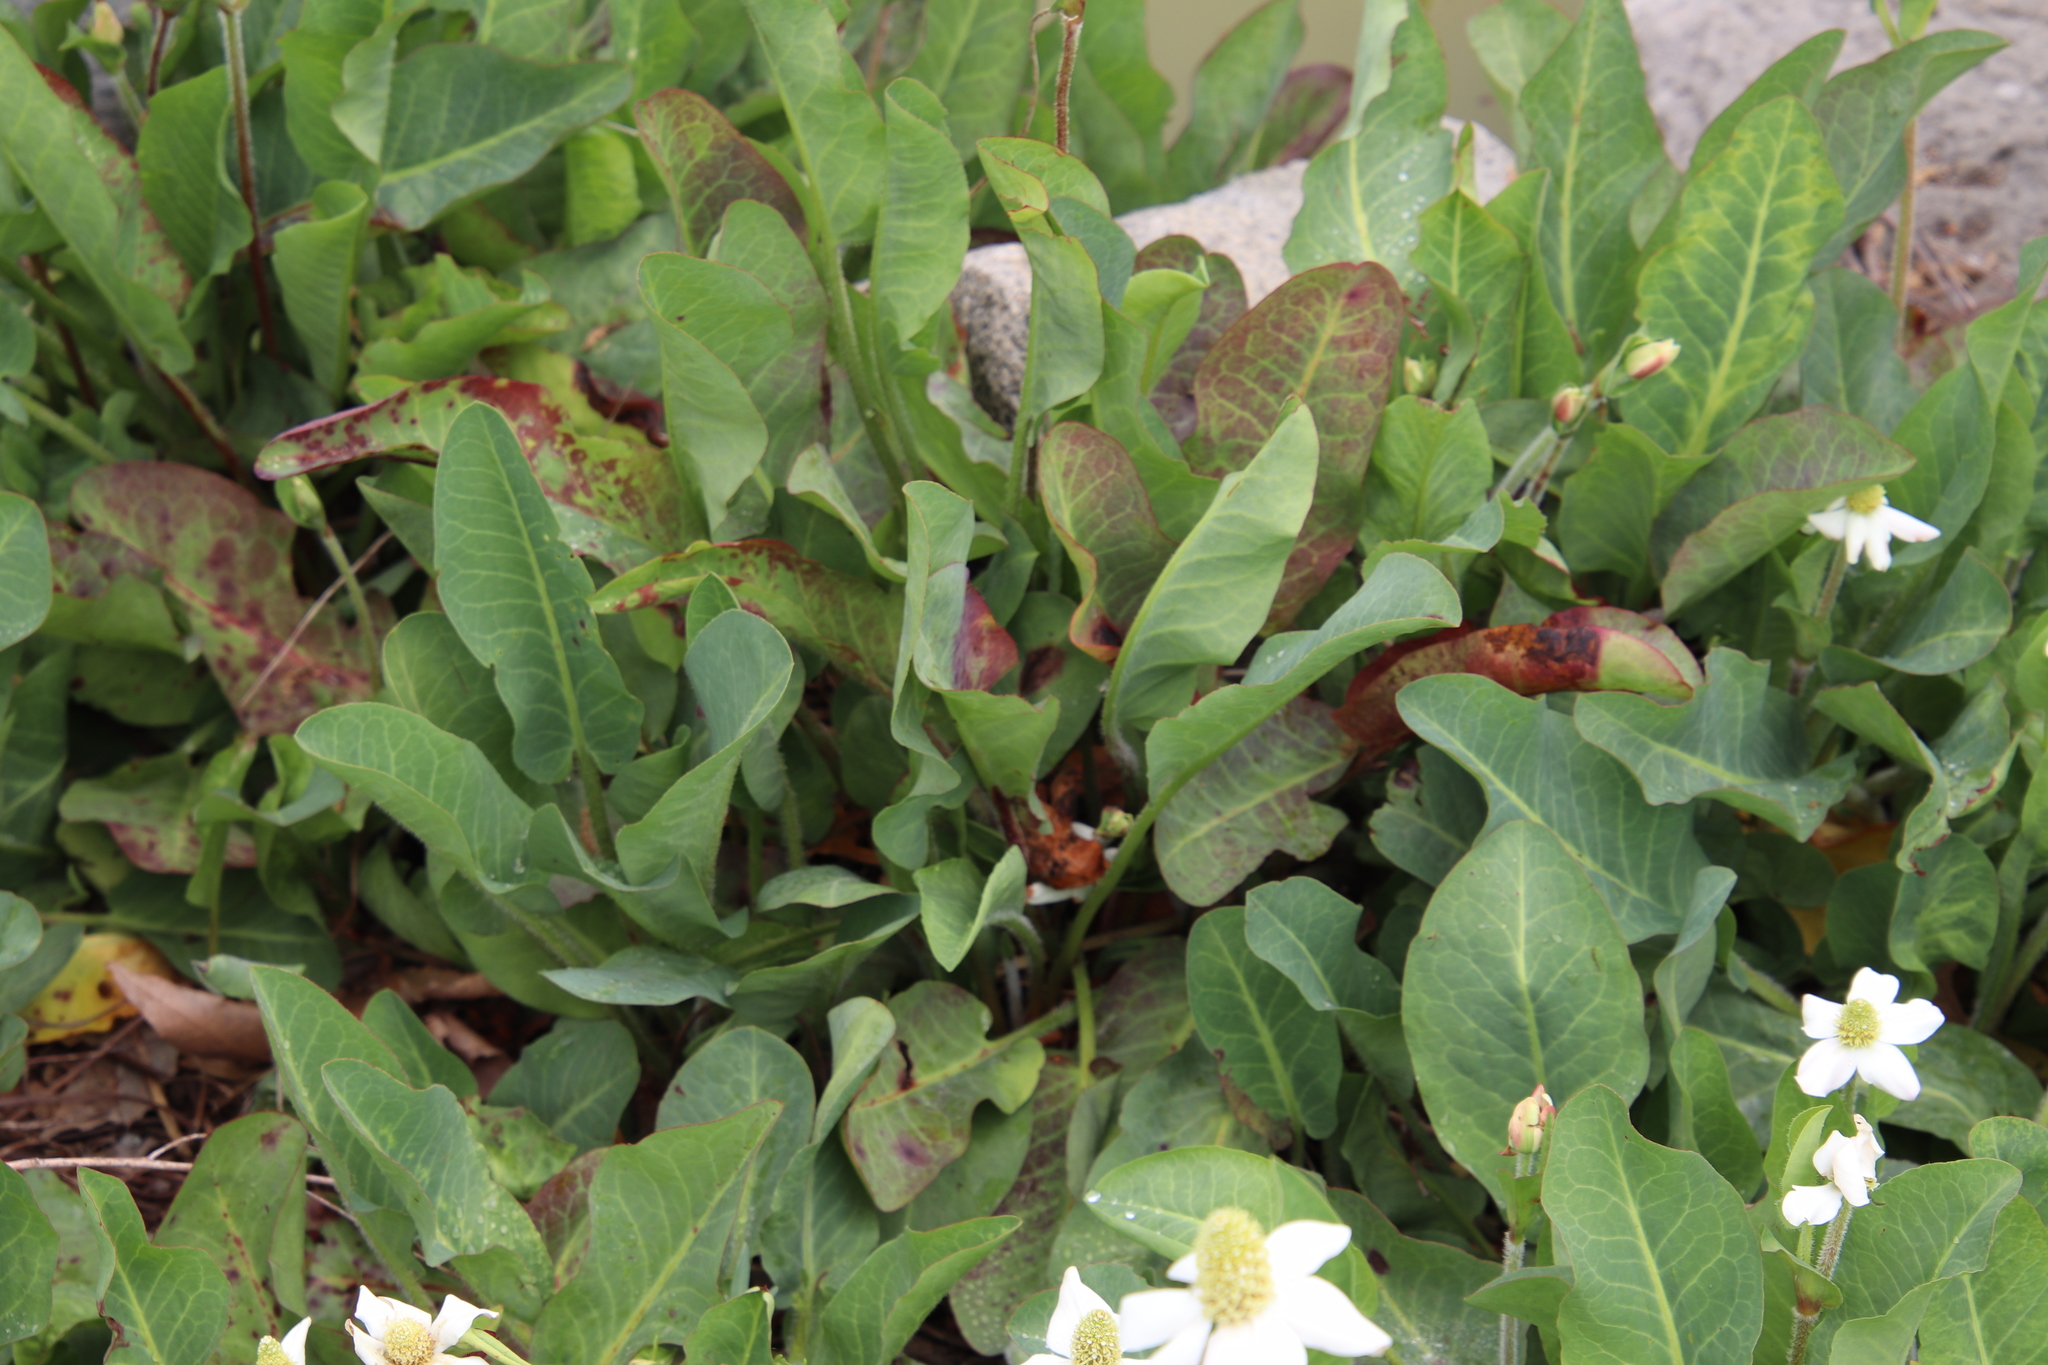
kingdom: Plantae
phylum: Tracheophyta
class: Magnoliopsida
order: Piperales
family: Saururaceae
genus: Anemopsis
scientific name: Anemopsis californica
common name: Apache-beads
